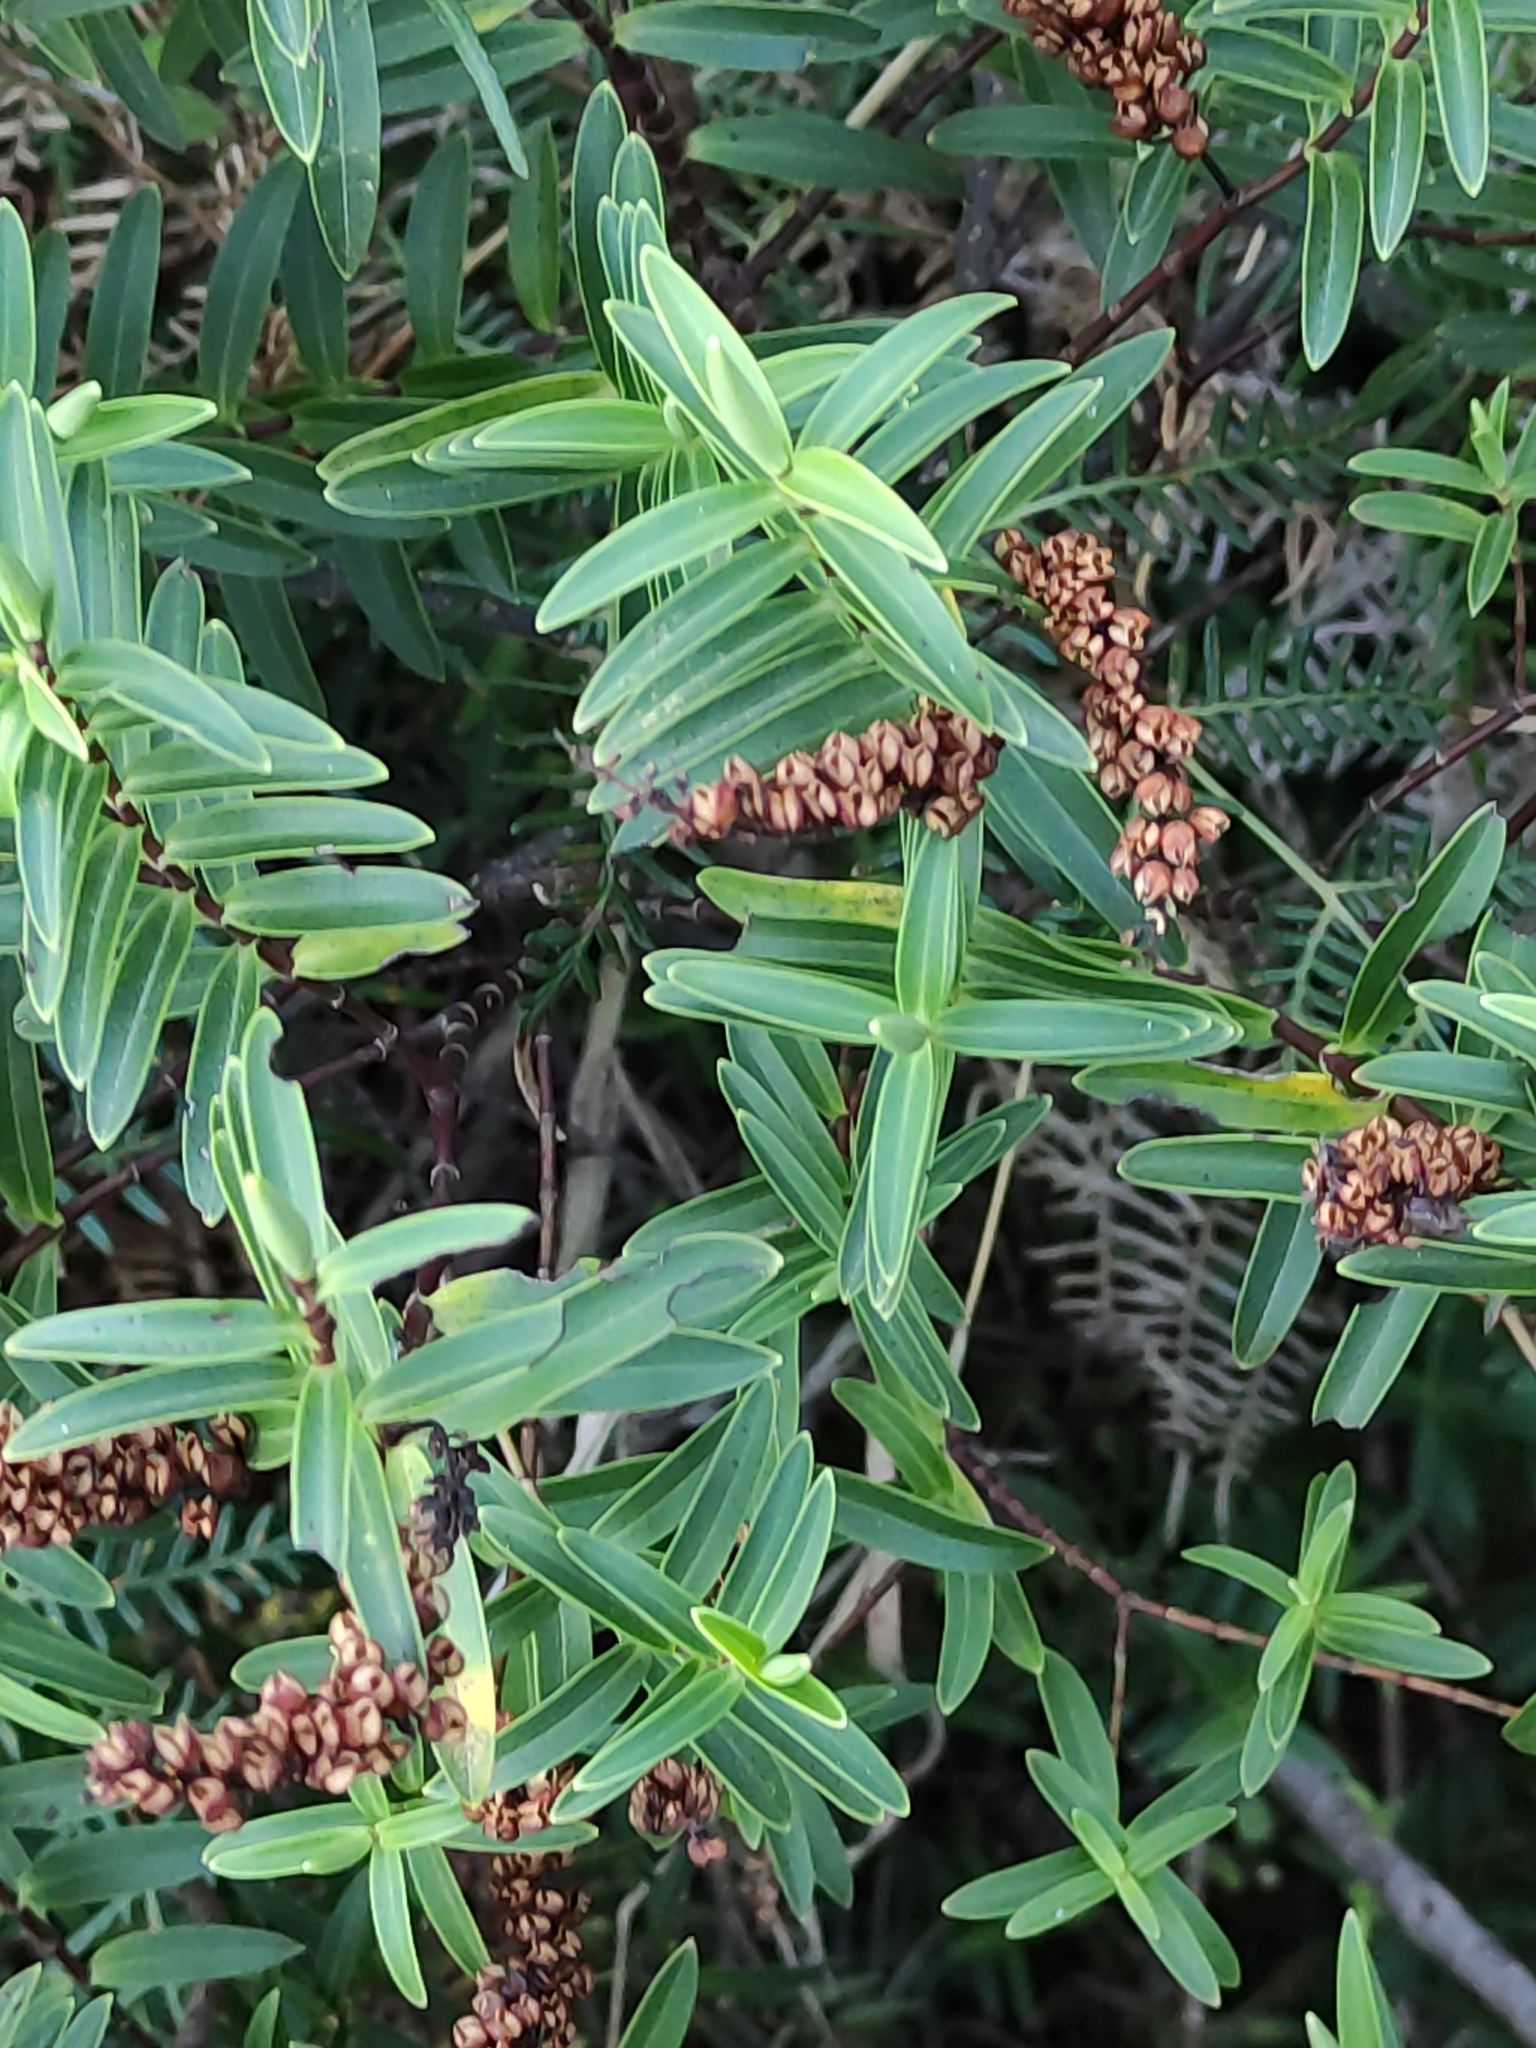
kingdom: Plantae
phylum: Tracheophyta
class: Magnoliopsida
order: Lamiales
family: Plantaginaceae
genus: Veronica
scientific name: Veronica strictissima
